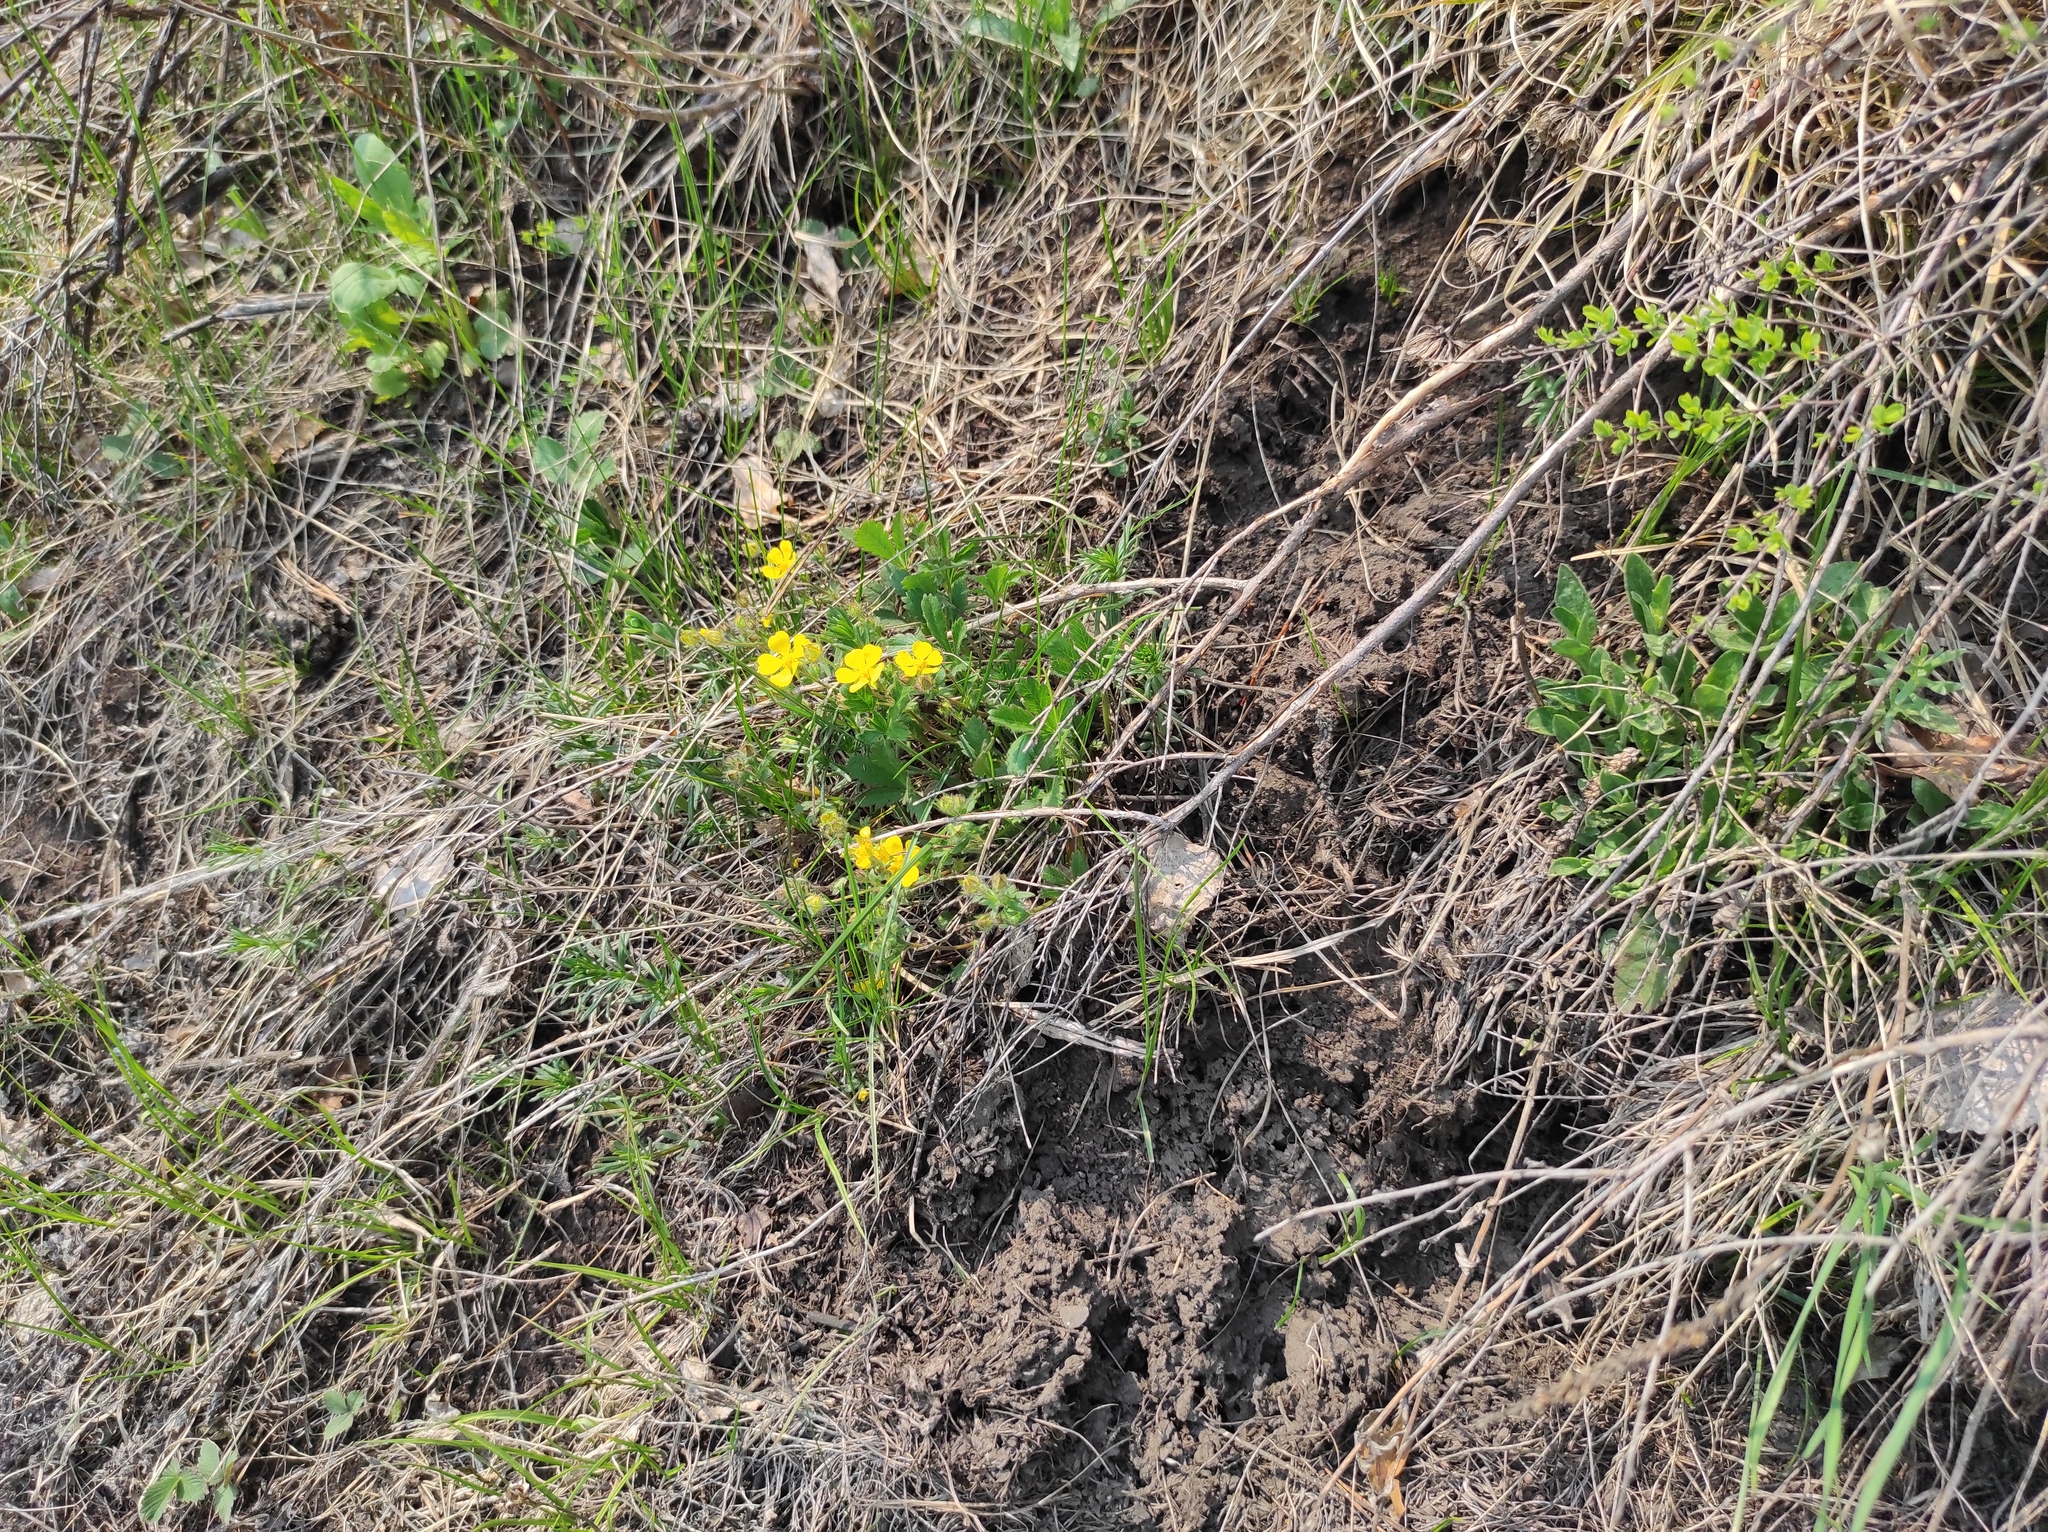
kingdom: Plantae
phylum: Tracheophyta
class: Magnoliopsida
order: Rosales
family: Rosaceae
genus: Potentilla
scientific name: Potentilla humifusa
